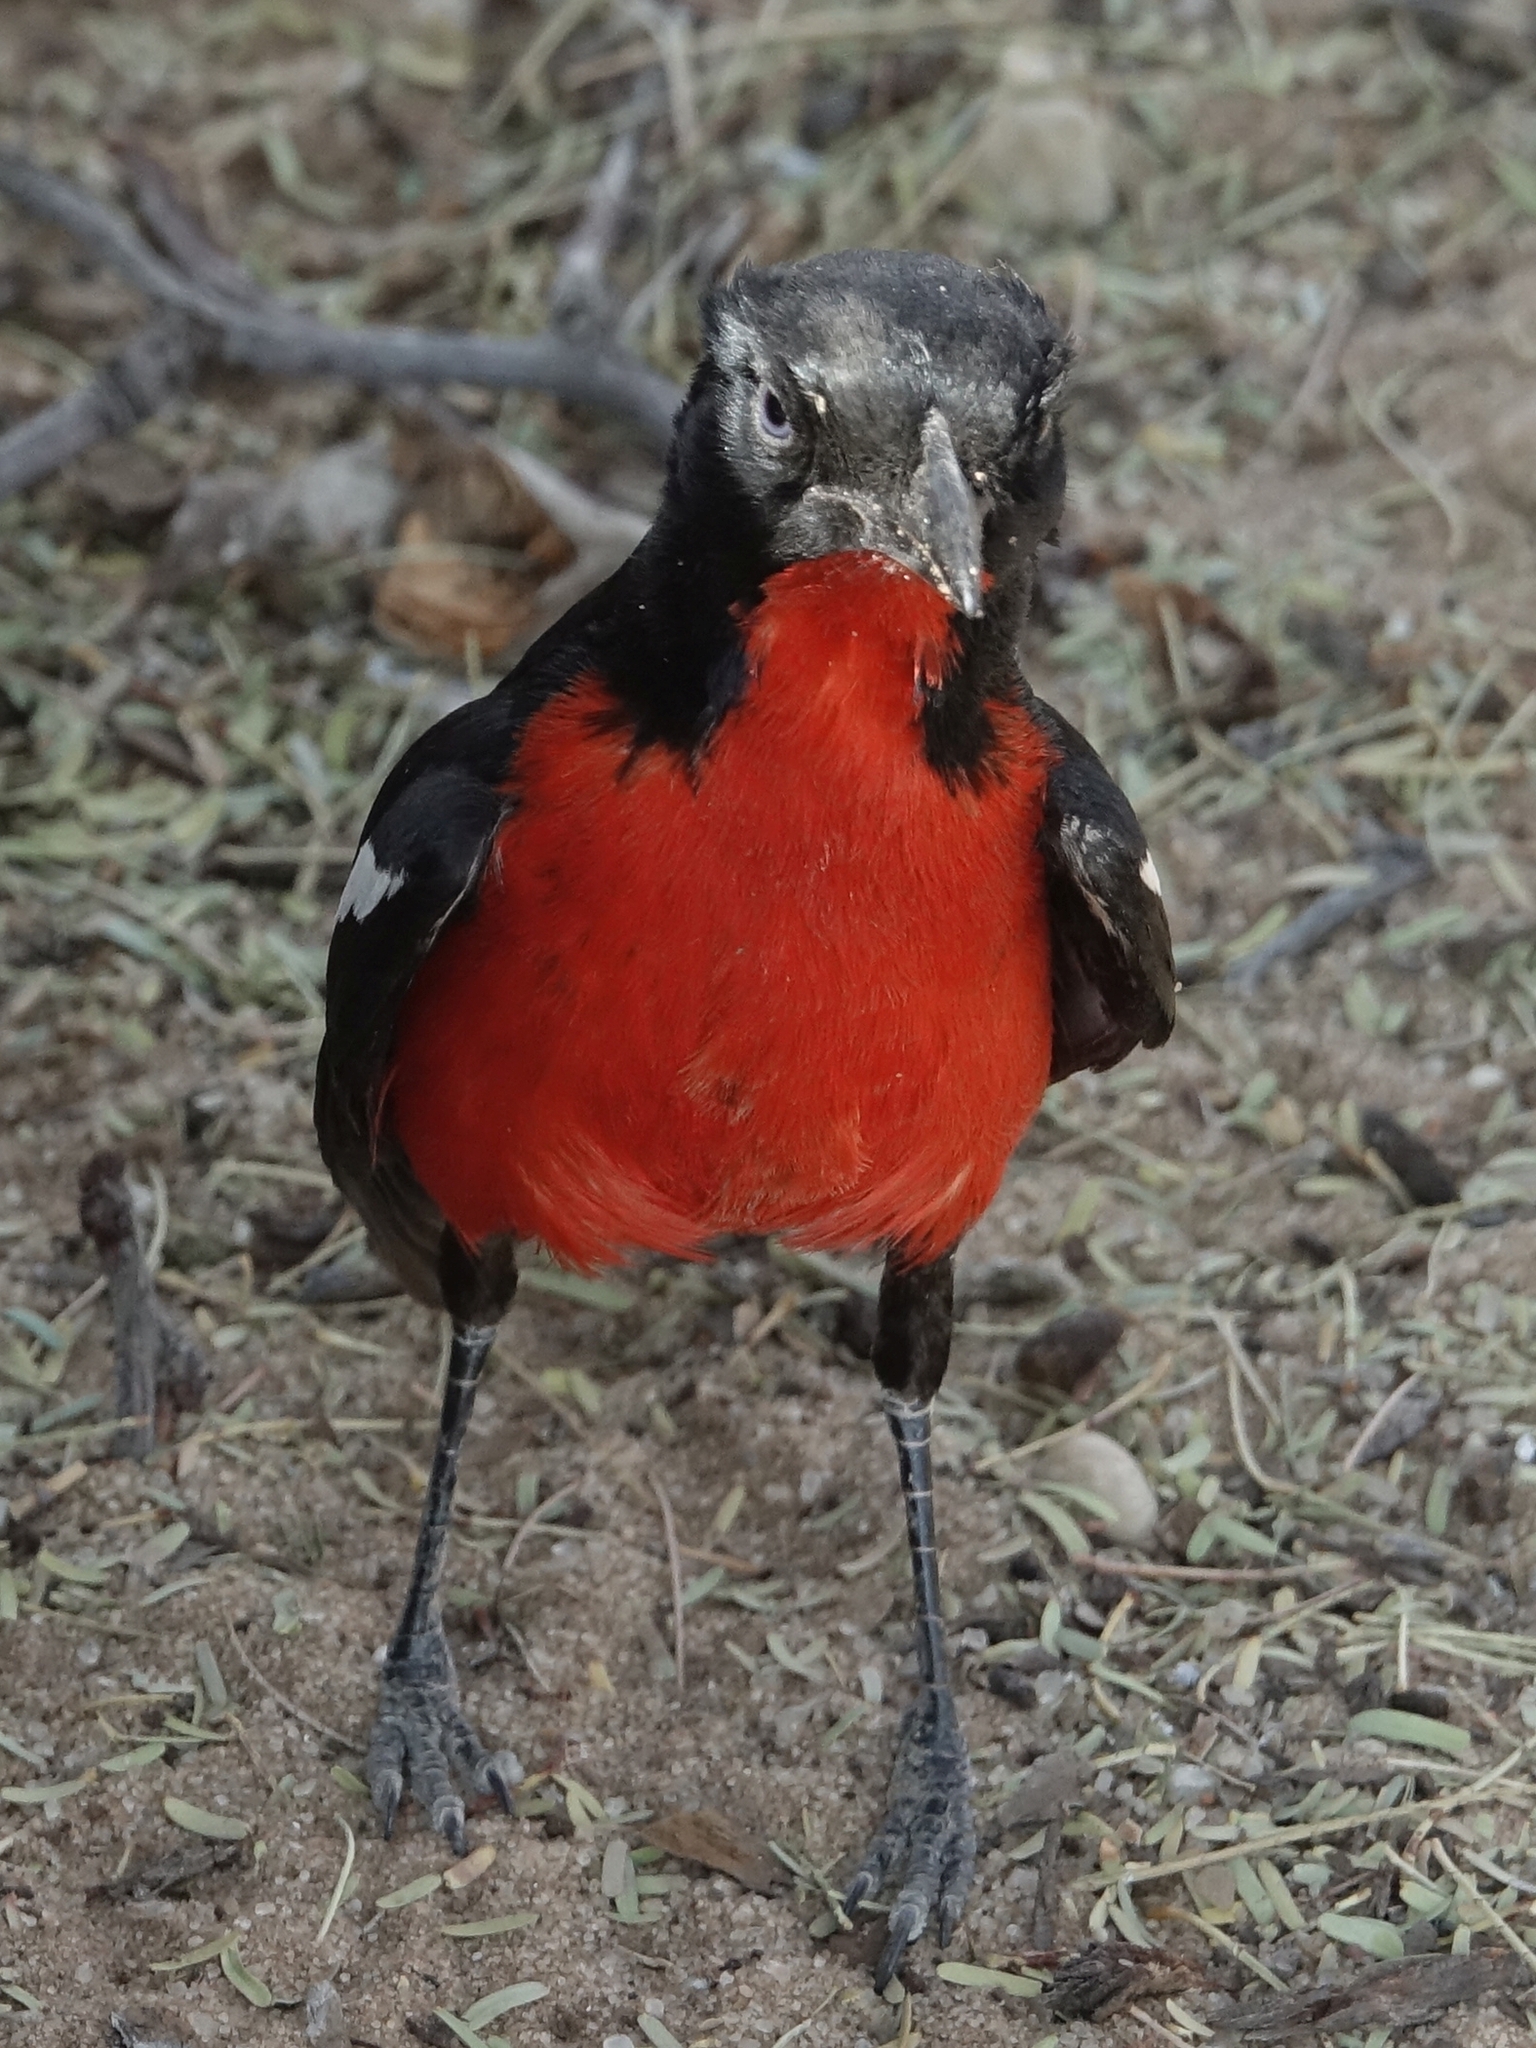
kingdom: Animalia
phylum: Chordata
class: Aves
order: Passeriformes
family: Malaconotidae
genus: Laniarius
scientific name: Laniarius atrococcineus
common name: Crimson-breasted shrike
